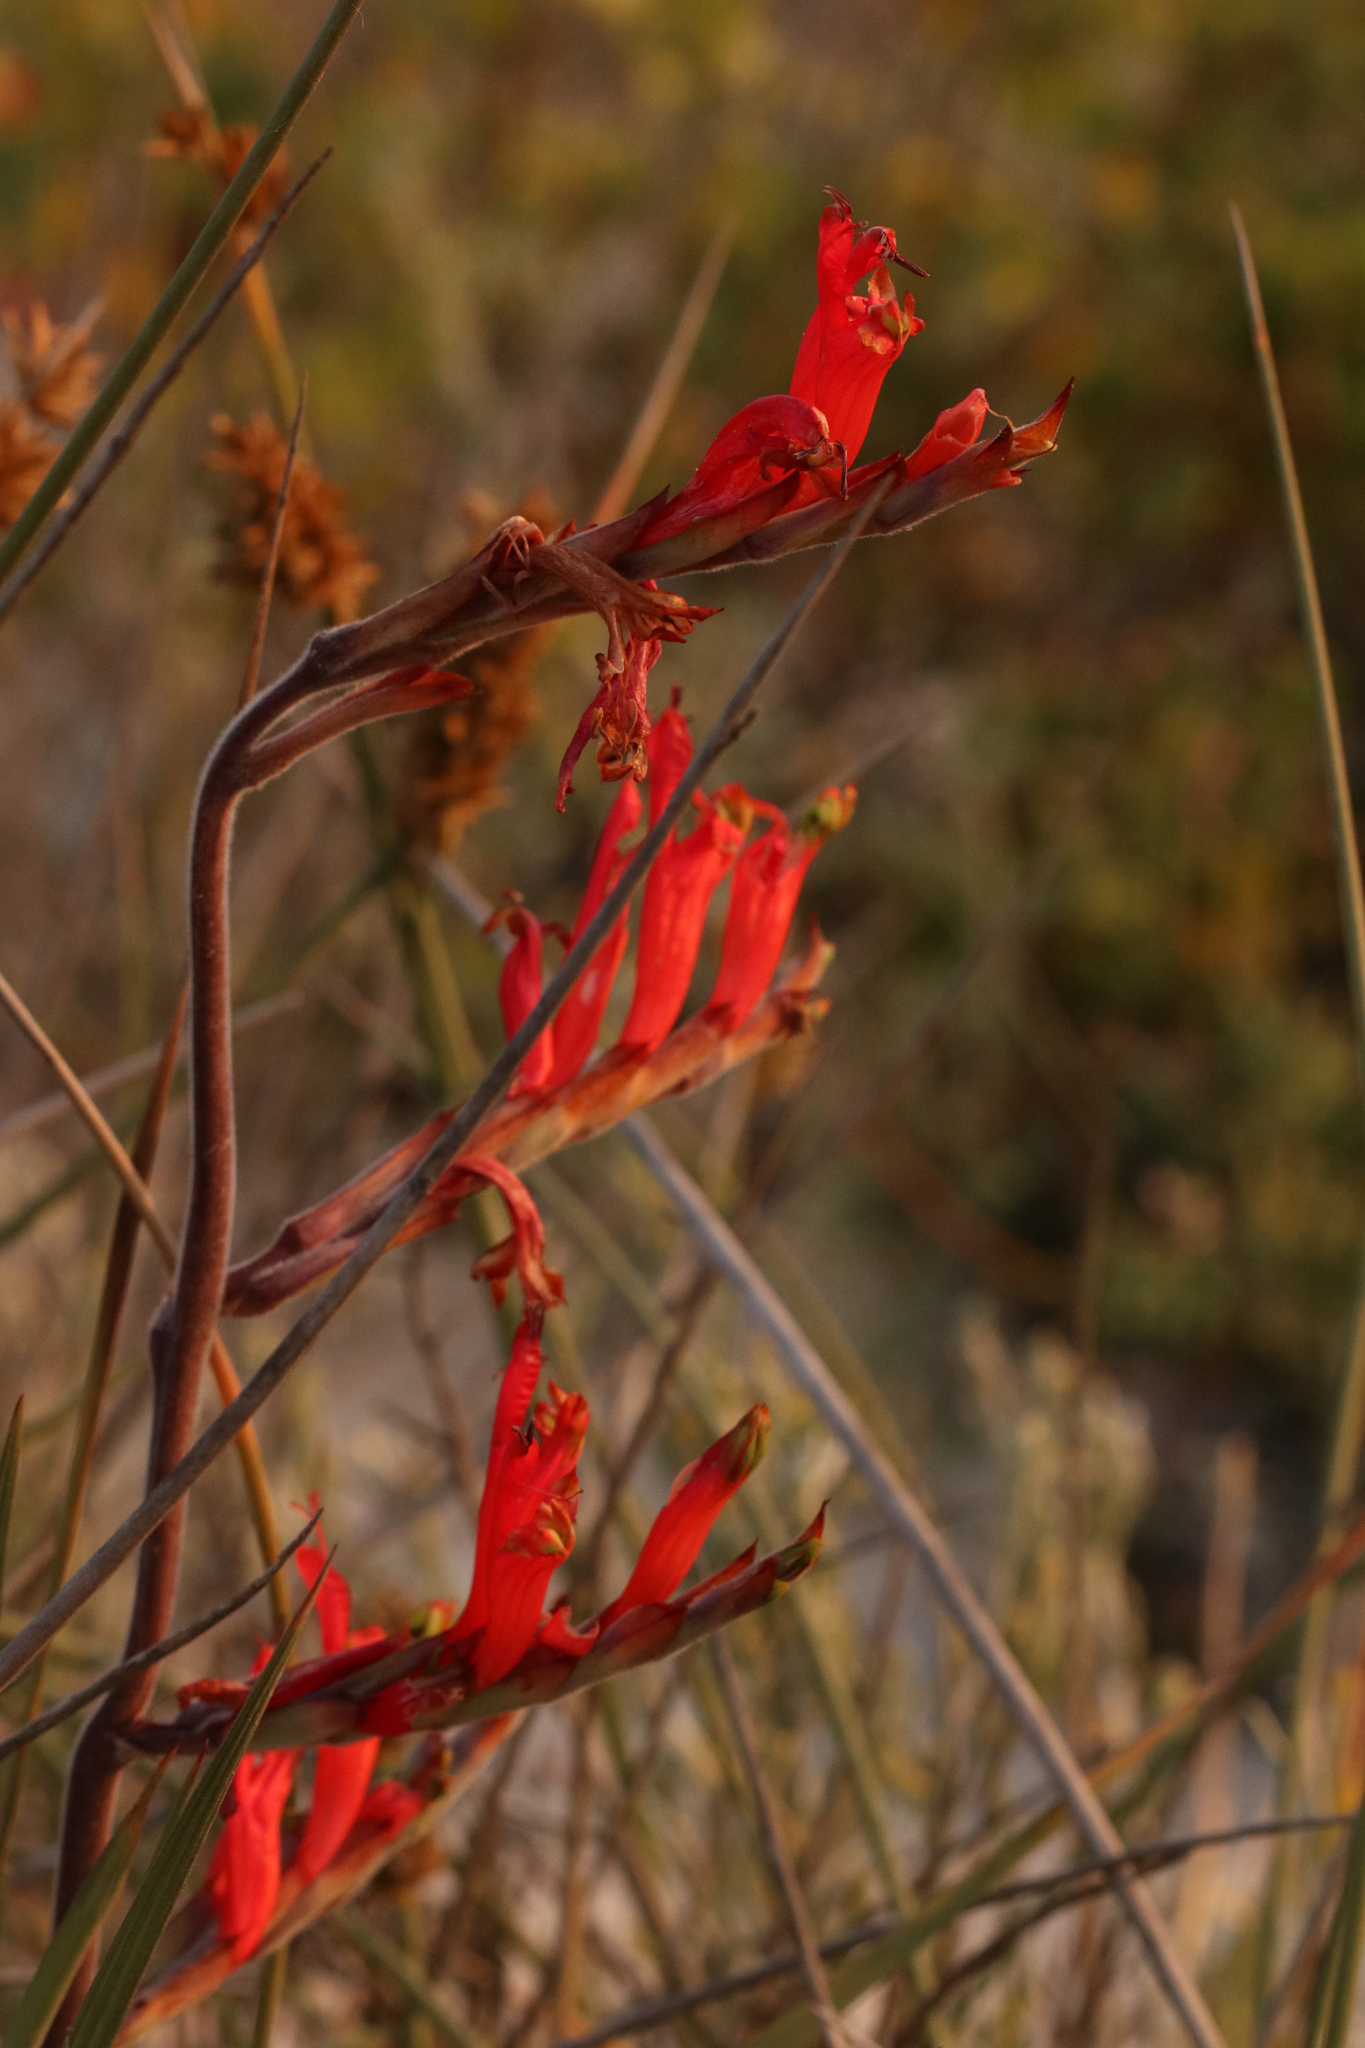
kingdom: Plantae
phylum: Tracheophyta
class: Liliopsida
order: Asparagales
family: Iridaceae
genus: Babiana
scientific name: Babiana hirsuta
